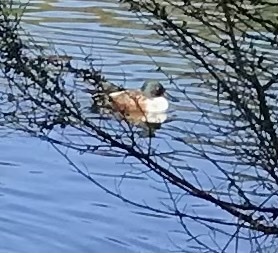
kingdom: Animalia
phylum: Chordata
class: Aves
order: Anseriformes
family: Anatidae
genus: Spatula
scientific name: Spatula clypeata
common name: Northern shoveler
